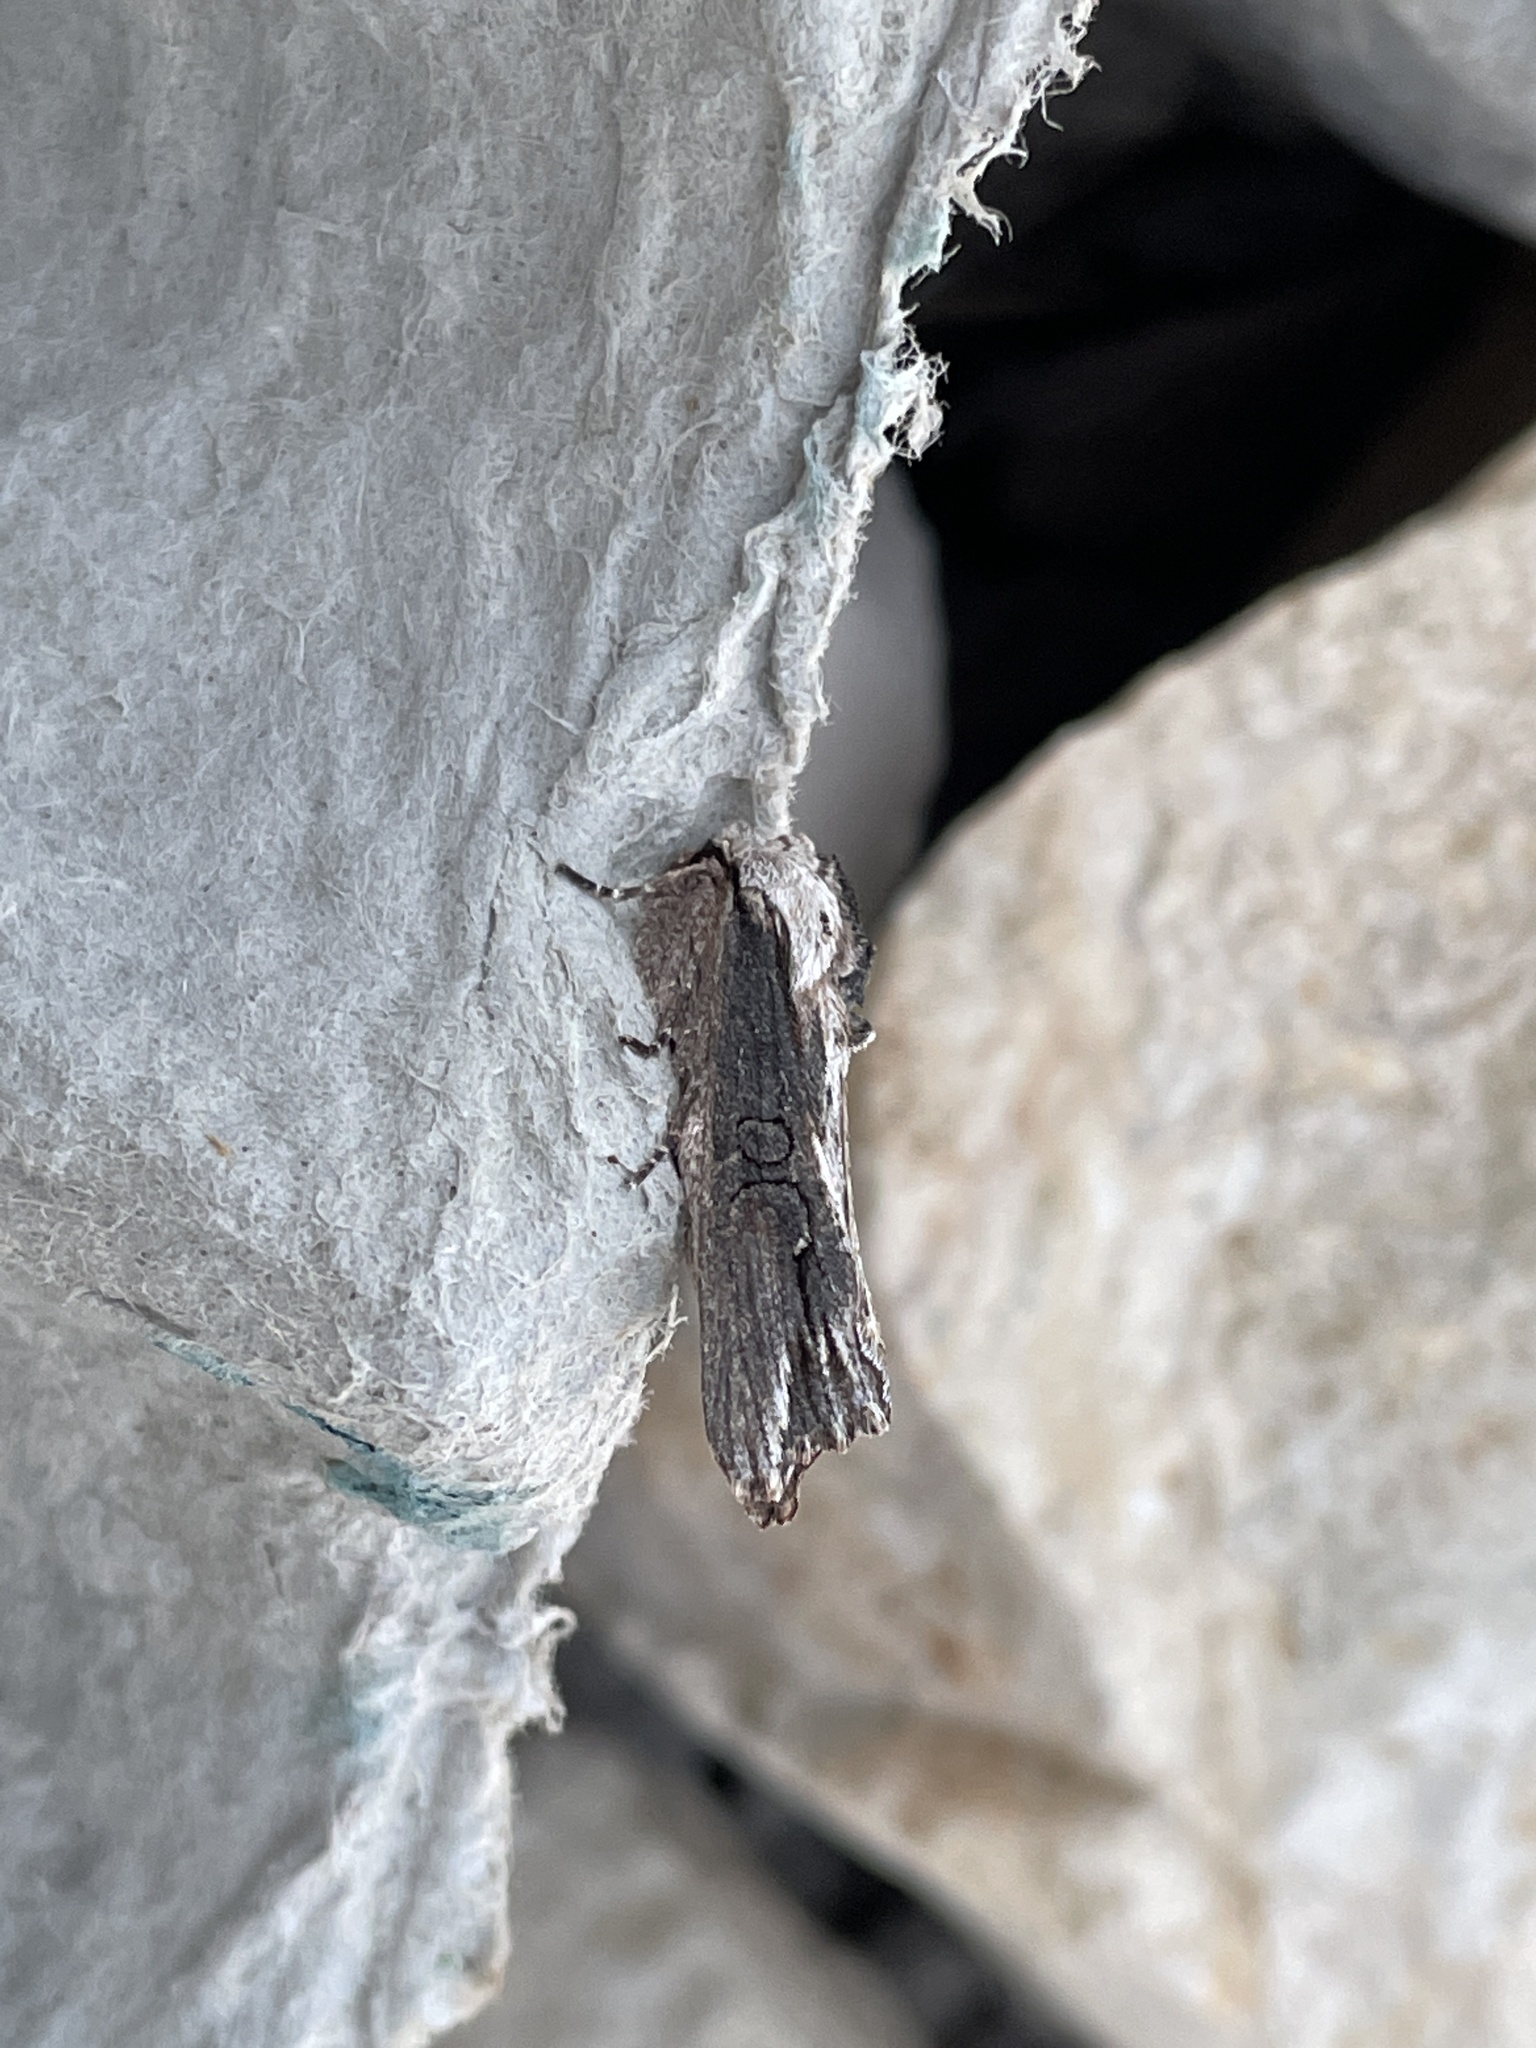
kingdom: Animalia
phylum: Arthropoda
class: Insecta
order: Lepidoptera
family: Noctuidae
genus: Egira
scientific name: Egira conspicillaris
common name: Silver cloud
